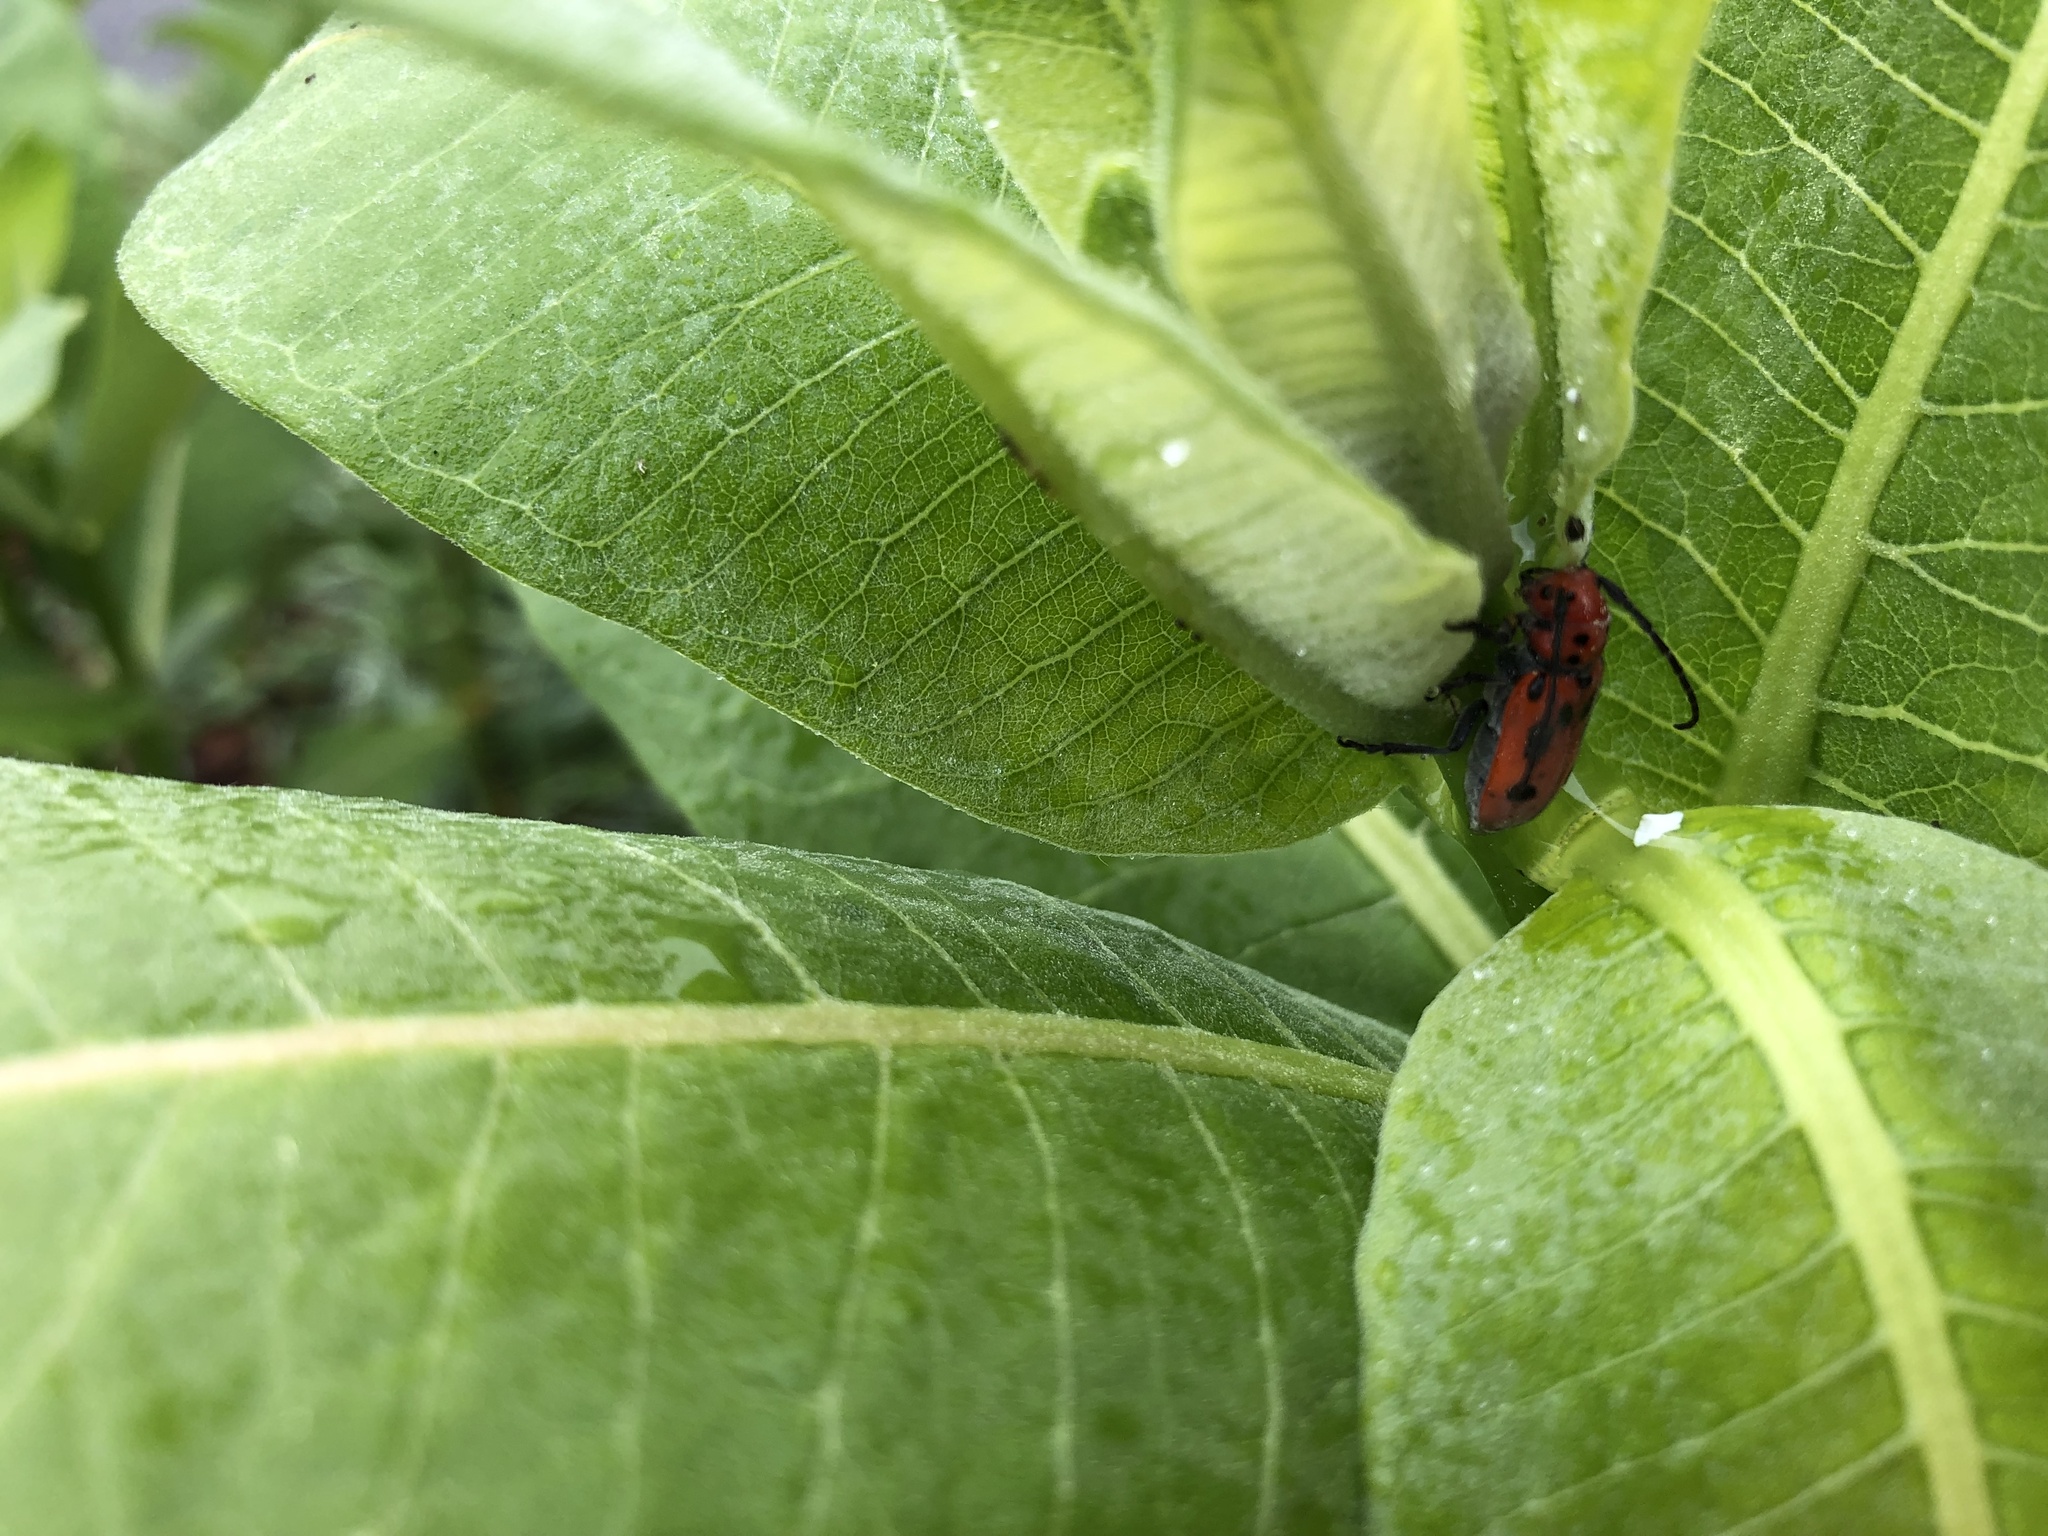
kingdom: Animalia
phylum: Arthropoda
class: Insecta
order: Coleoptera
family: Cerambycidae
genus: Tetraopes
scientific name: Tetraopes tetrophthalmus
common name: Red milkweed beetle
